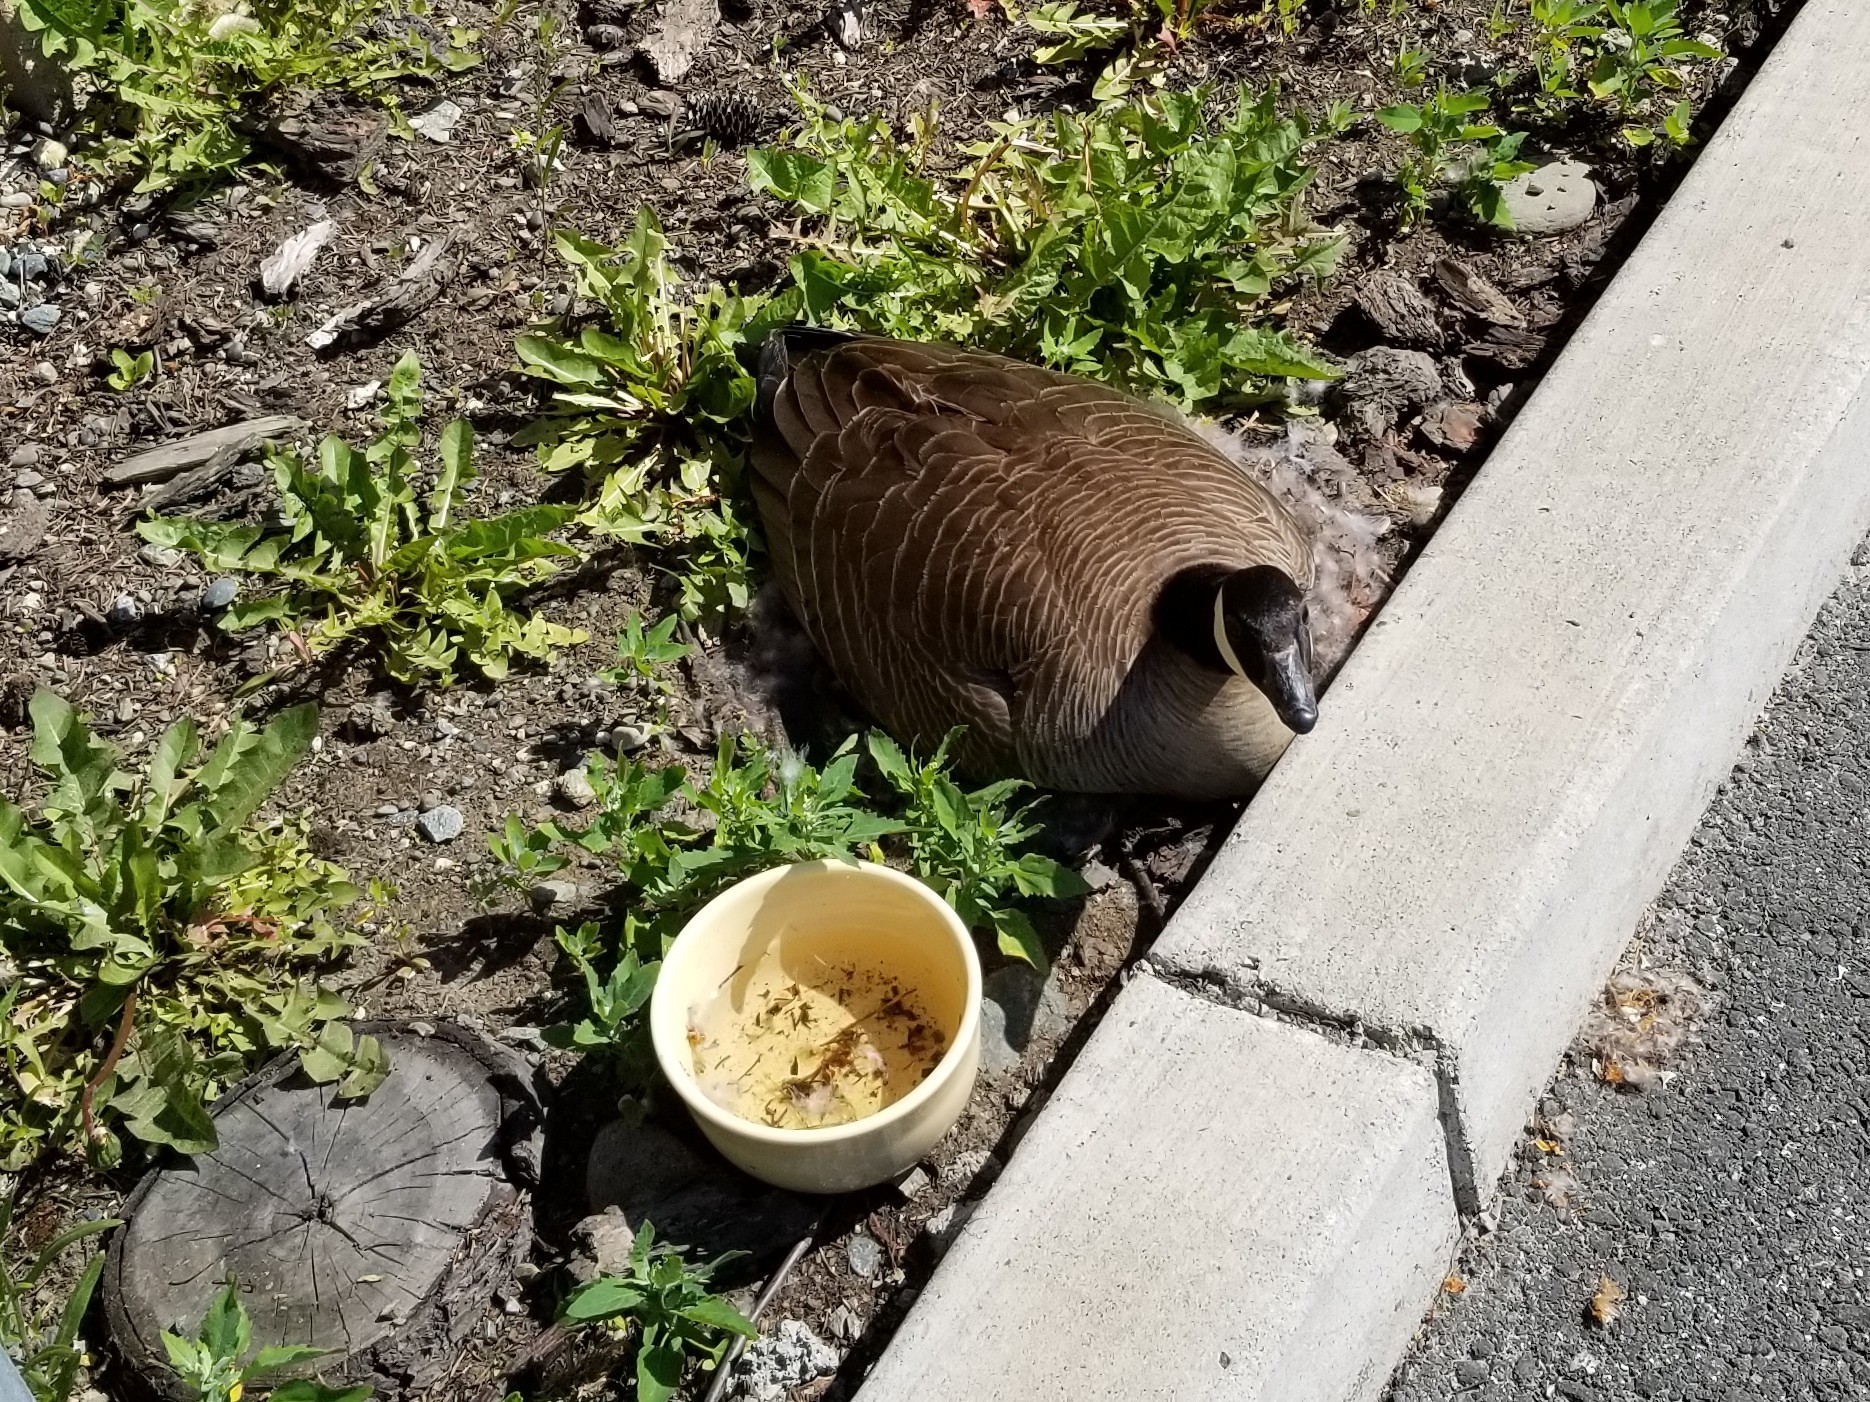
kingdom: Animalia
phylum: Chordata
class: Aves
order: Anseriformes
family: Anatidae
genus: Branta
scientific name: Branta canadensis
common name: Canada goose
